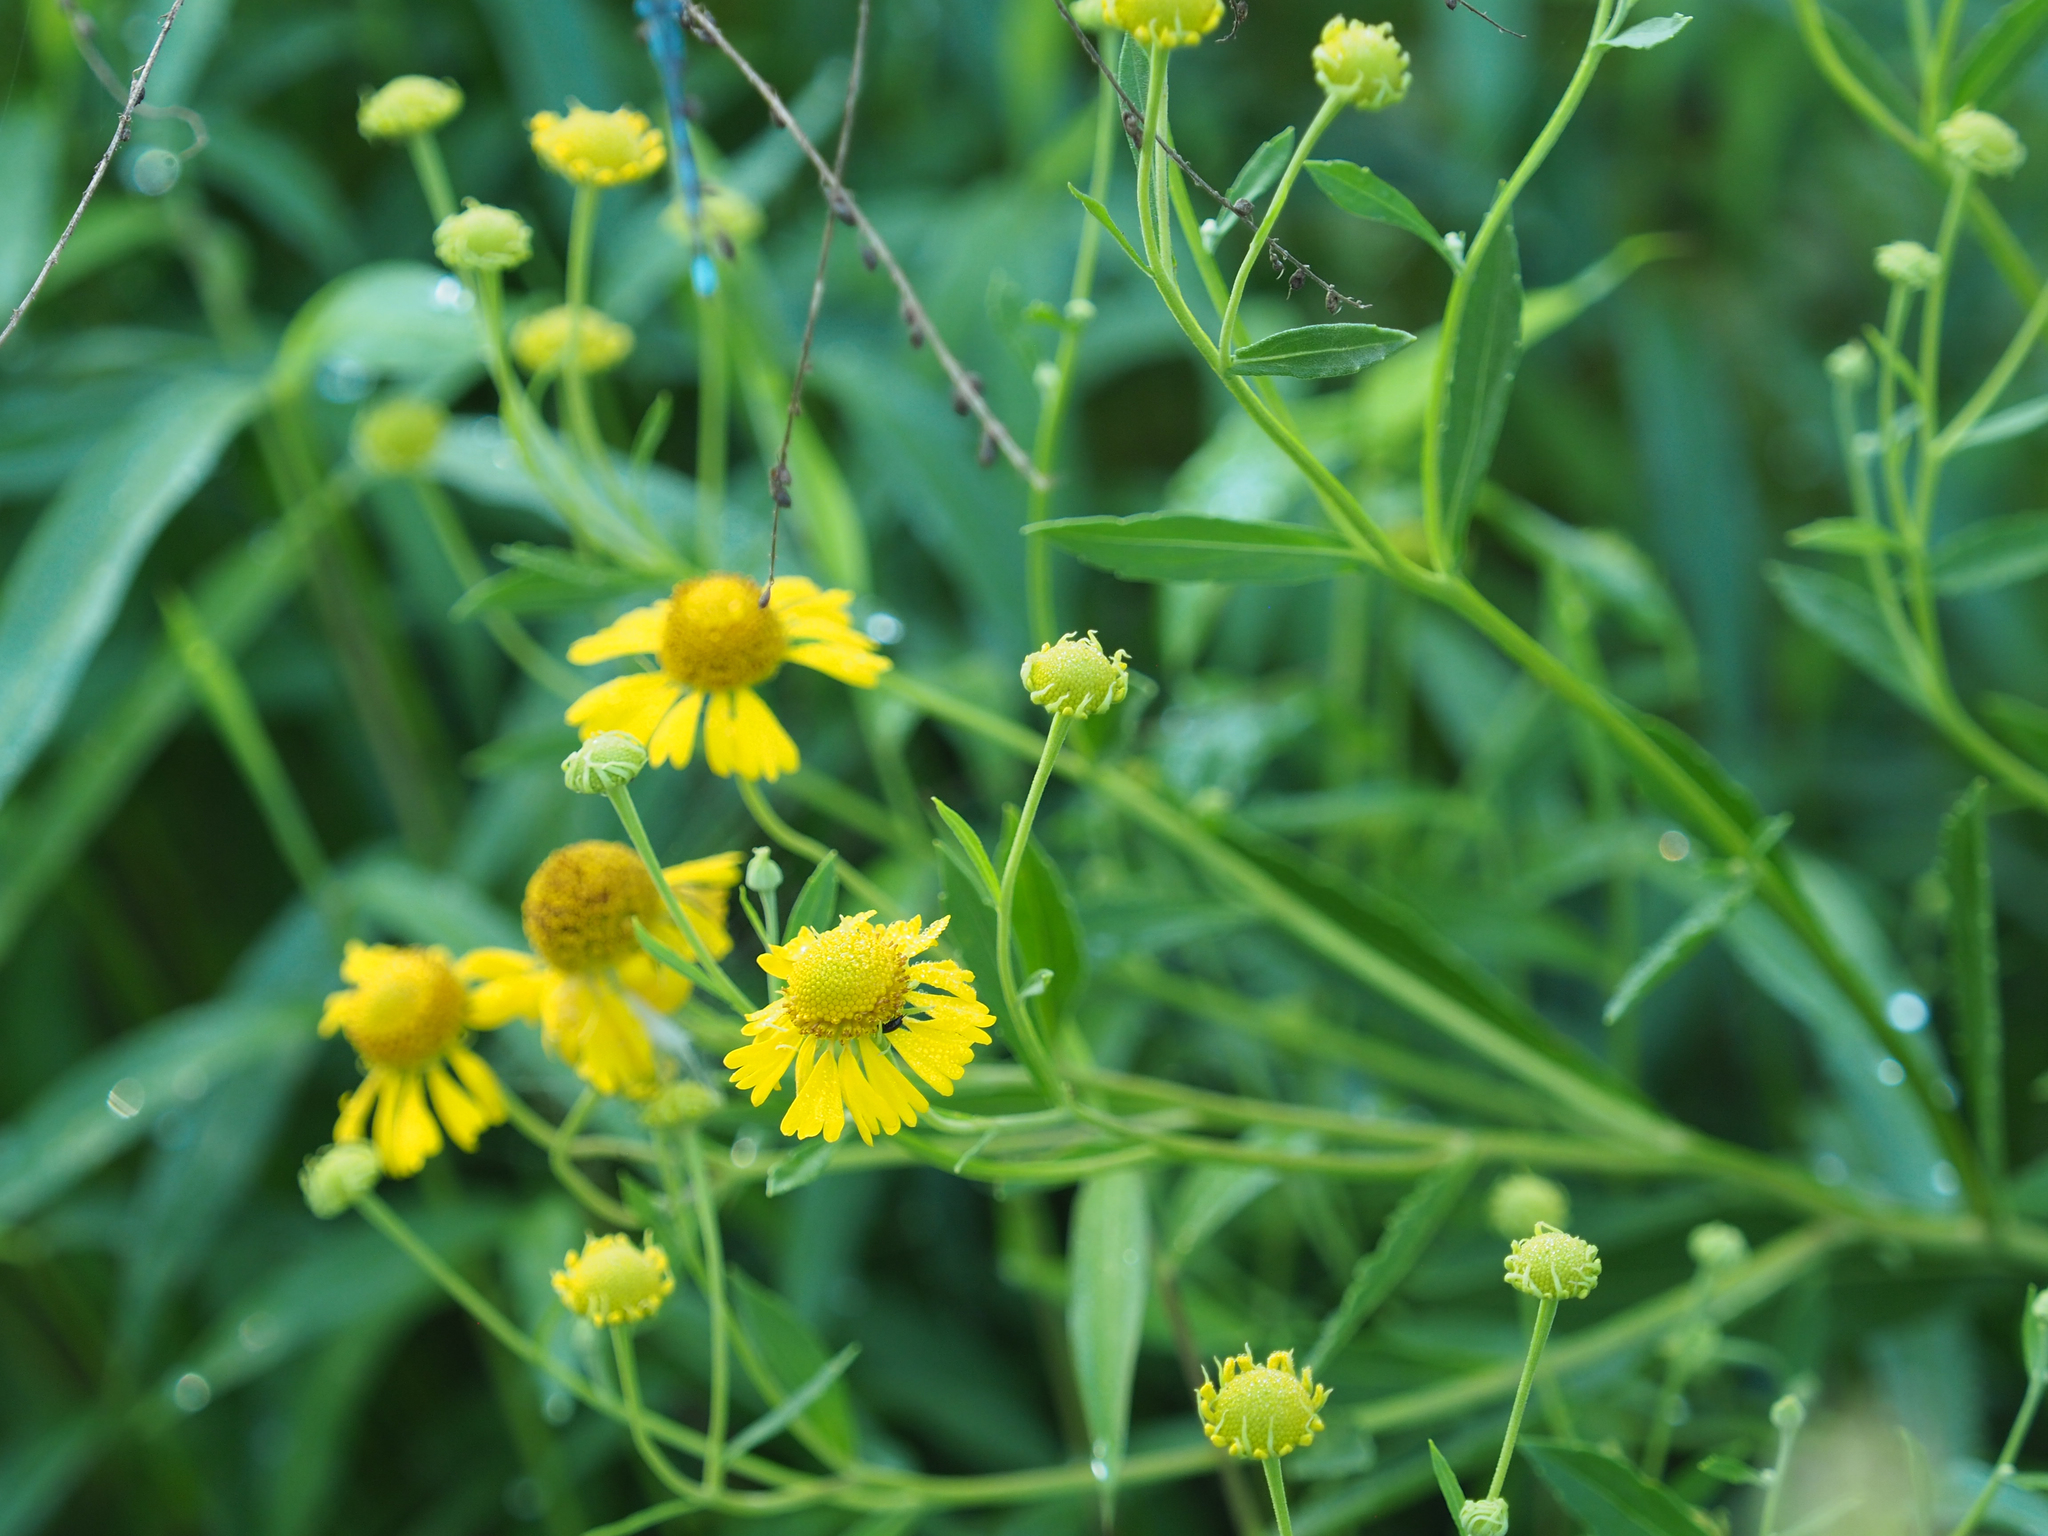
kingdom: Plantae
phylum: Tracheophyta
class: Magnoliopsida
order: Asterales
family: Asteraceae
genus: Helenium
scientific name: Helenium autumnale
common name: Sneezeweed
